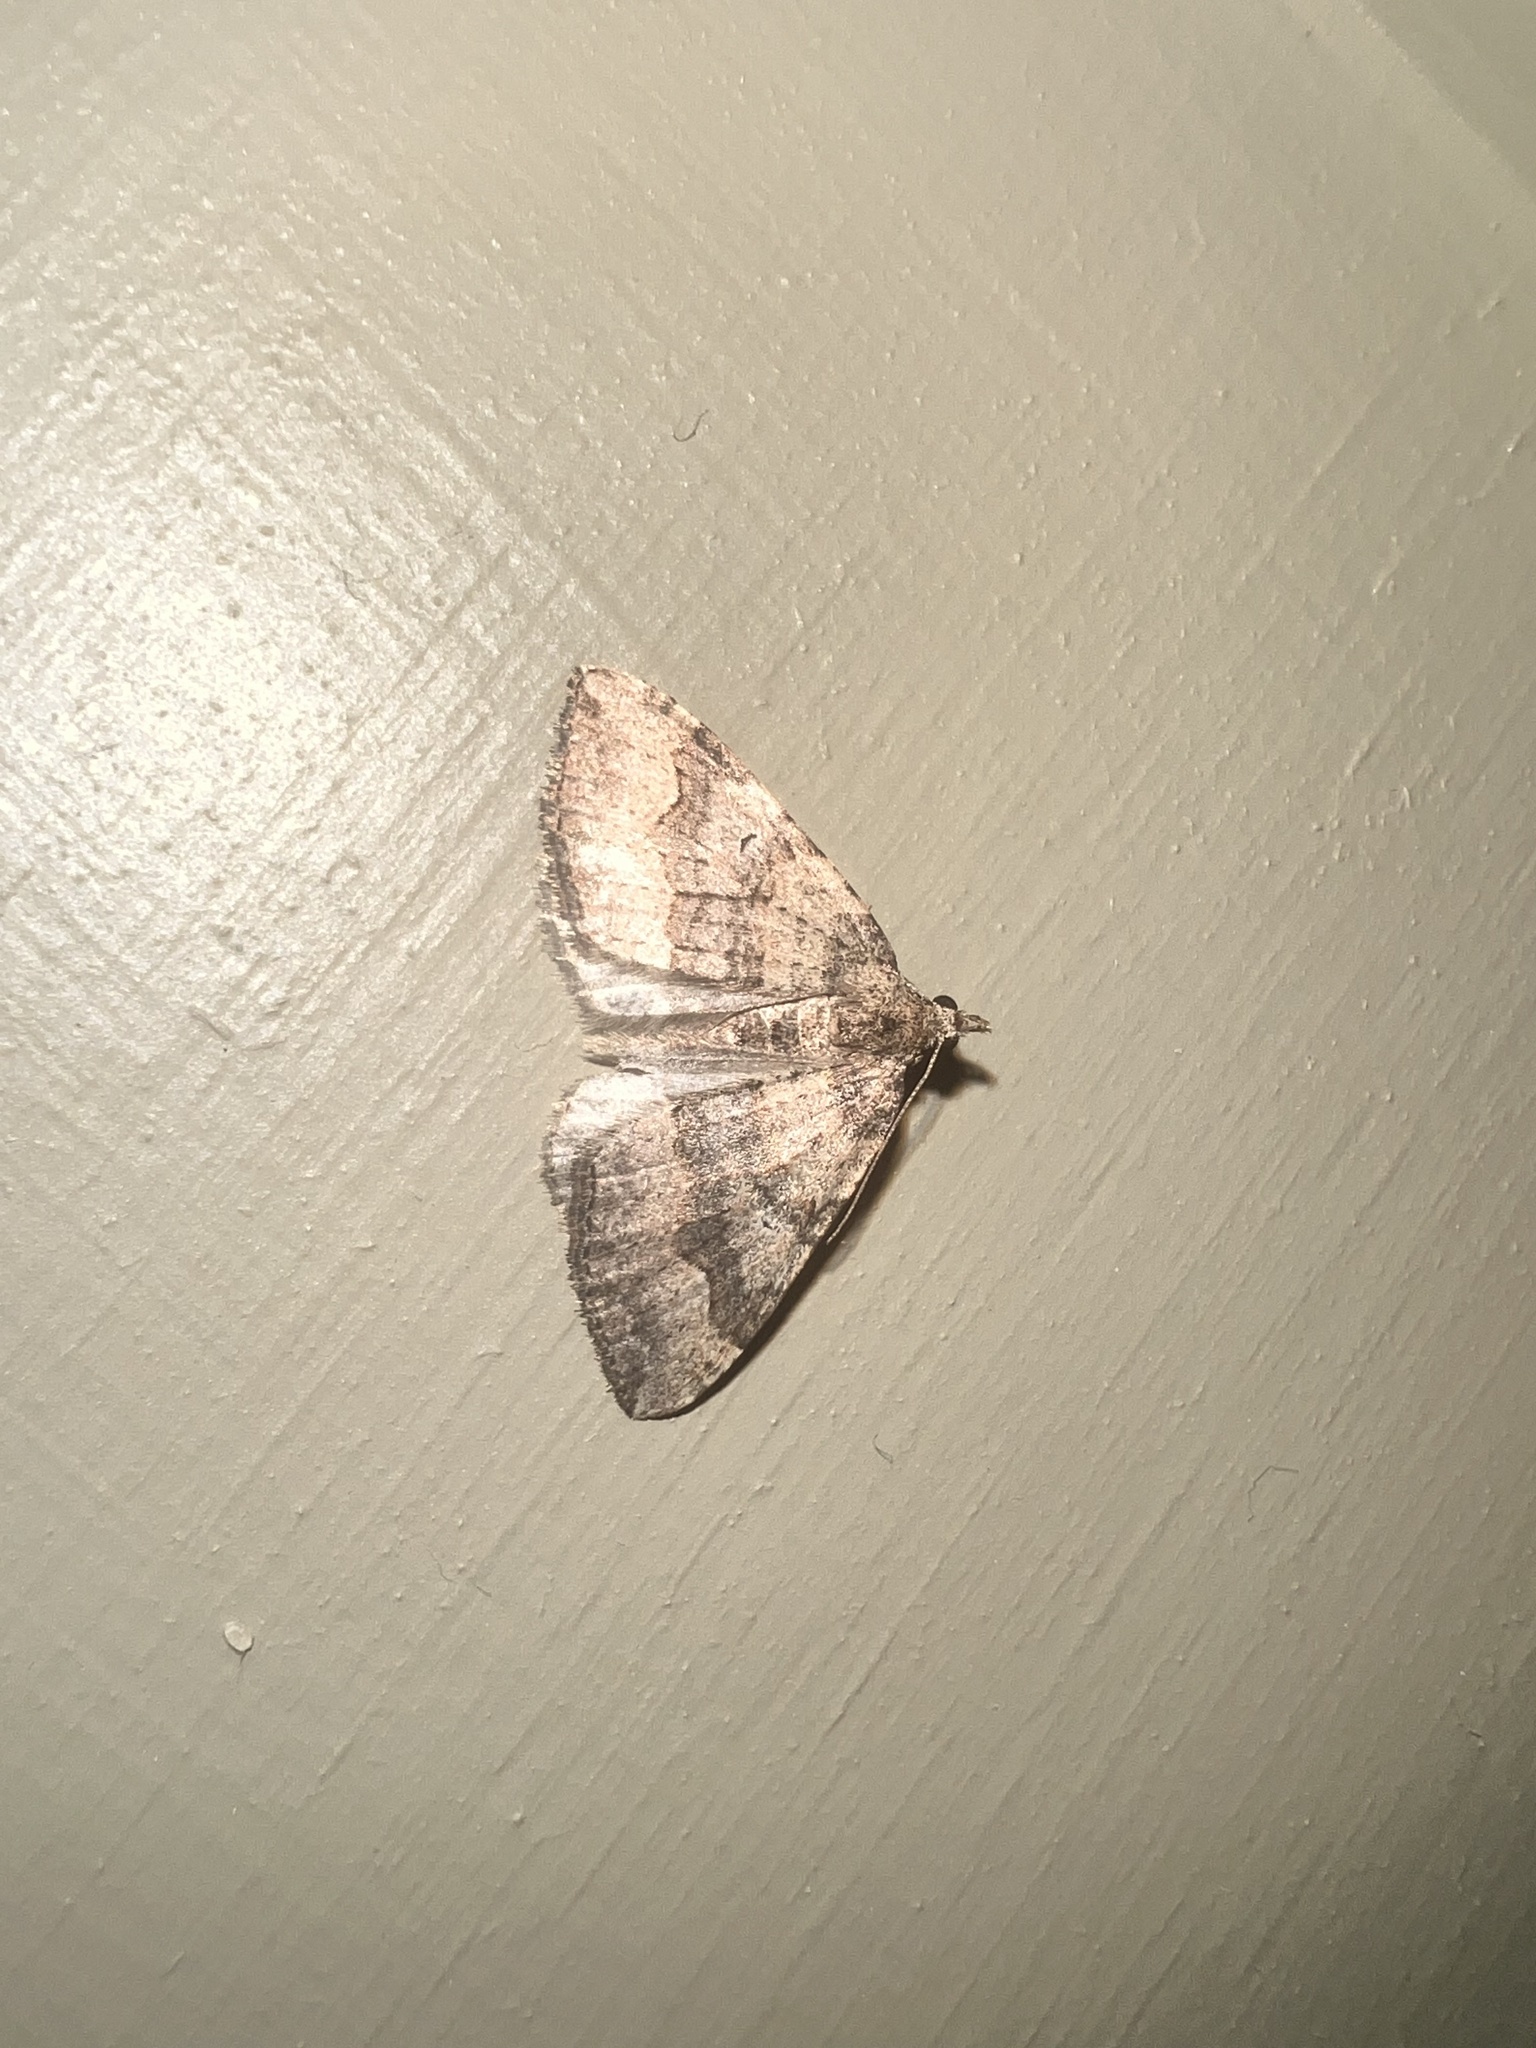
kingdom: Animalia
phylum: Arthropoda
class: Insecta
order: Lepidoptera
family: Geometridae
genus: Epyaxa
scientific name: Epyaxa rosearia
